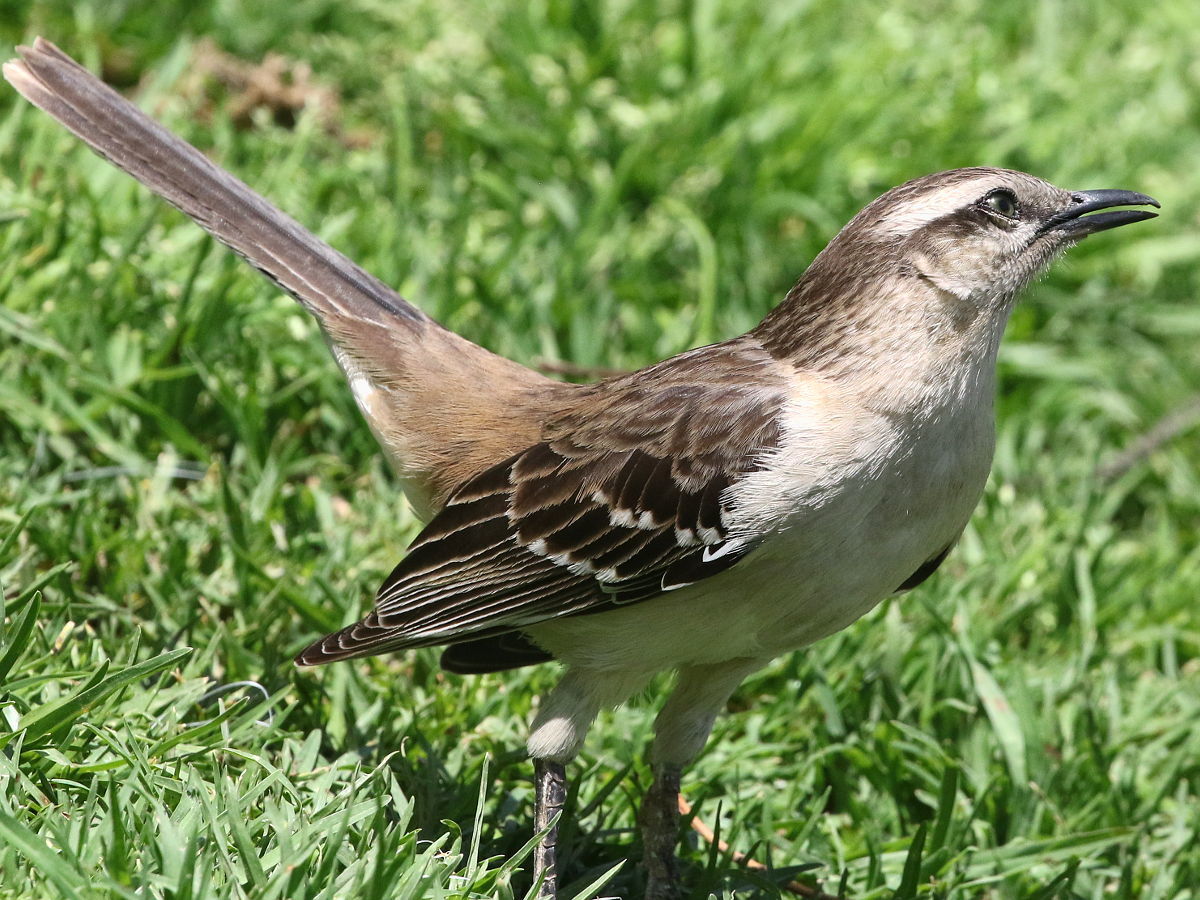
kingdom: Animalia
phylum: Chordata
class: Aves
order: Passeriformes
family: Mimidae
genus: Mimus
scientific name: Mimus saturninus
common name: Chalk-browed mockingbird
